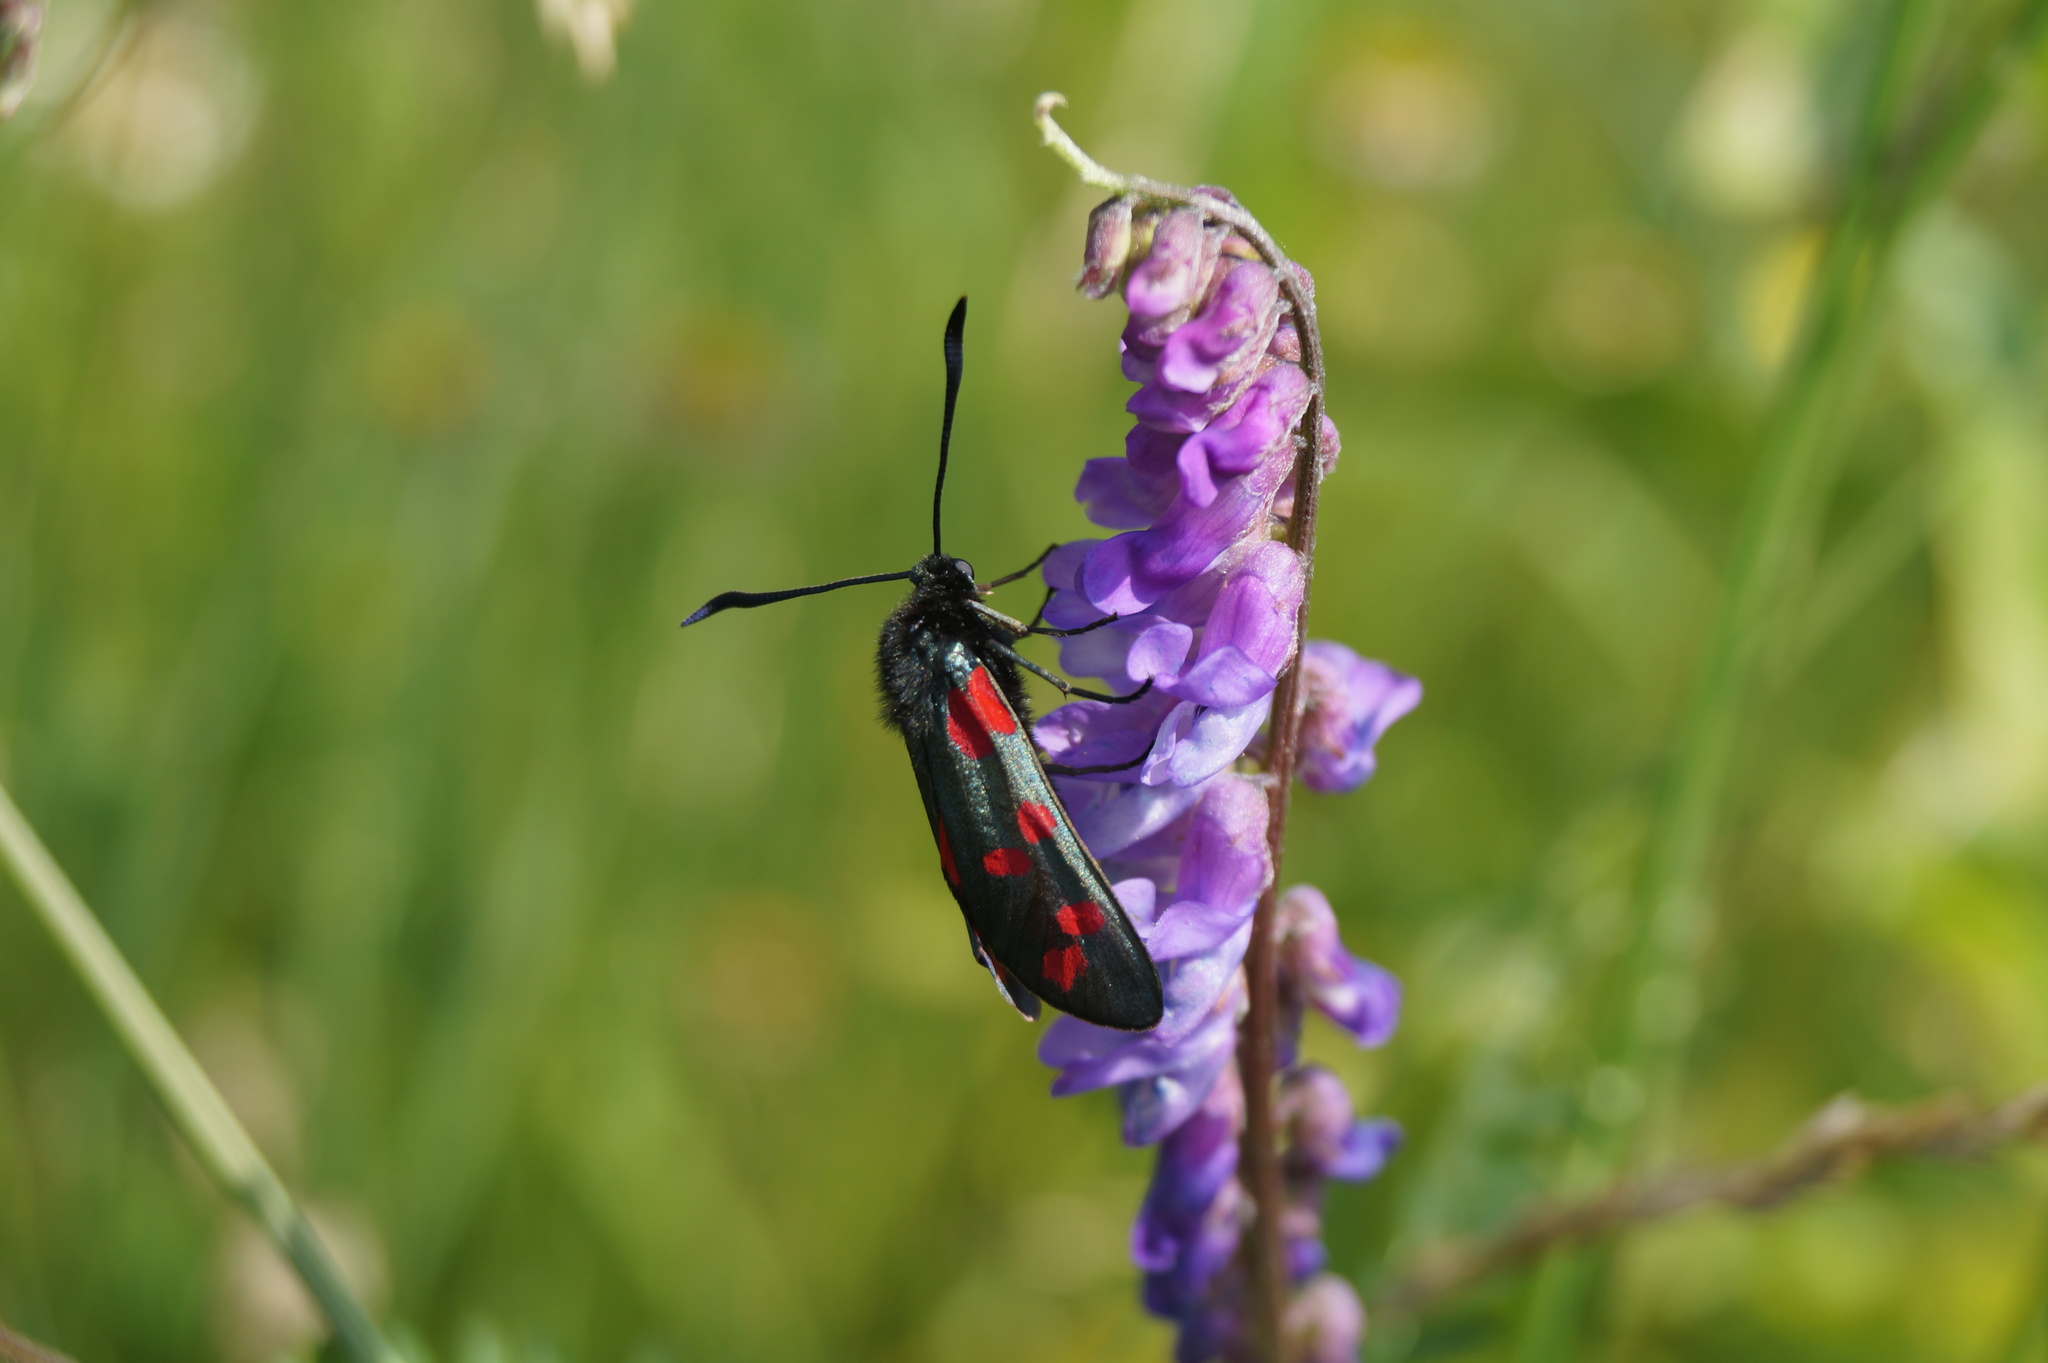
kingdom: Animalia
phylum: Arthropoda
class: Insecta
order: Lepidoptera
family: Zygaenidae
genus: Zygaena
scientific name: Zygaena filipendulae
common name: Six-spot burnet
